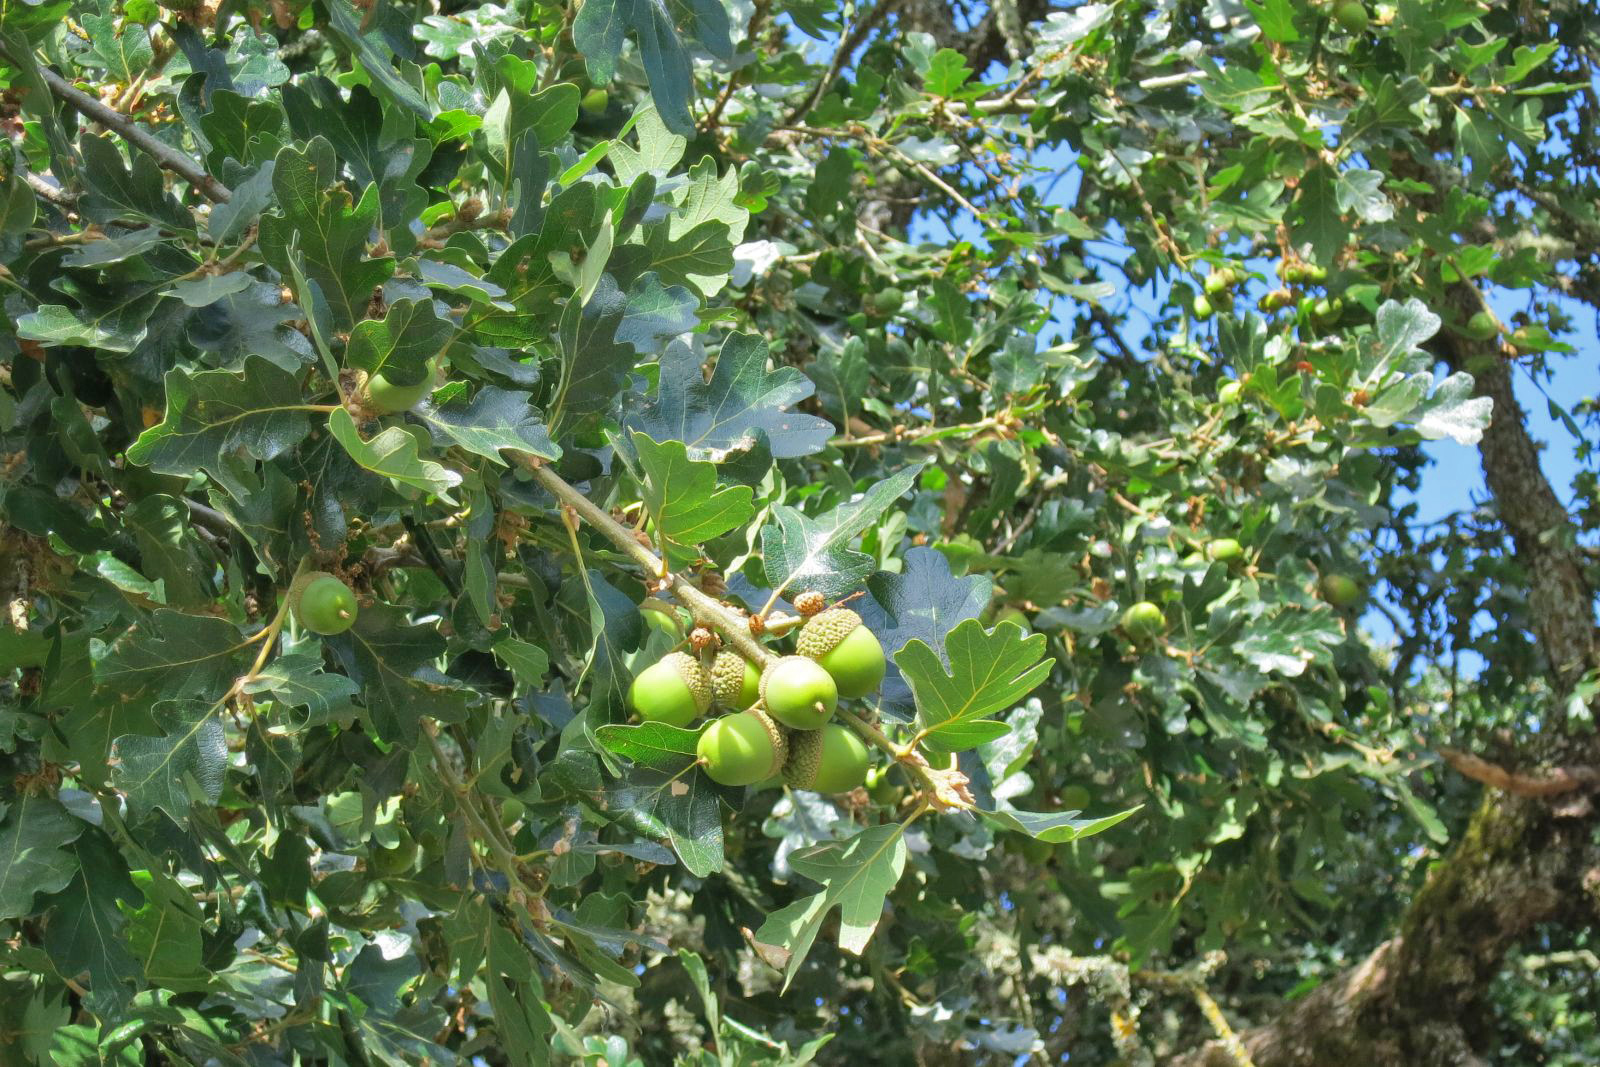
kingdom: Plantae
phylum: Tracheophyta
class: Magnoliopsida
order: Fagales
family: Fagaceae
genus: Quercus
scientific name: Quercus garryana
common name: Garry oak
